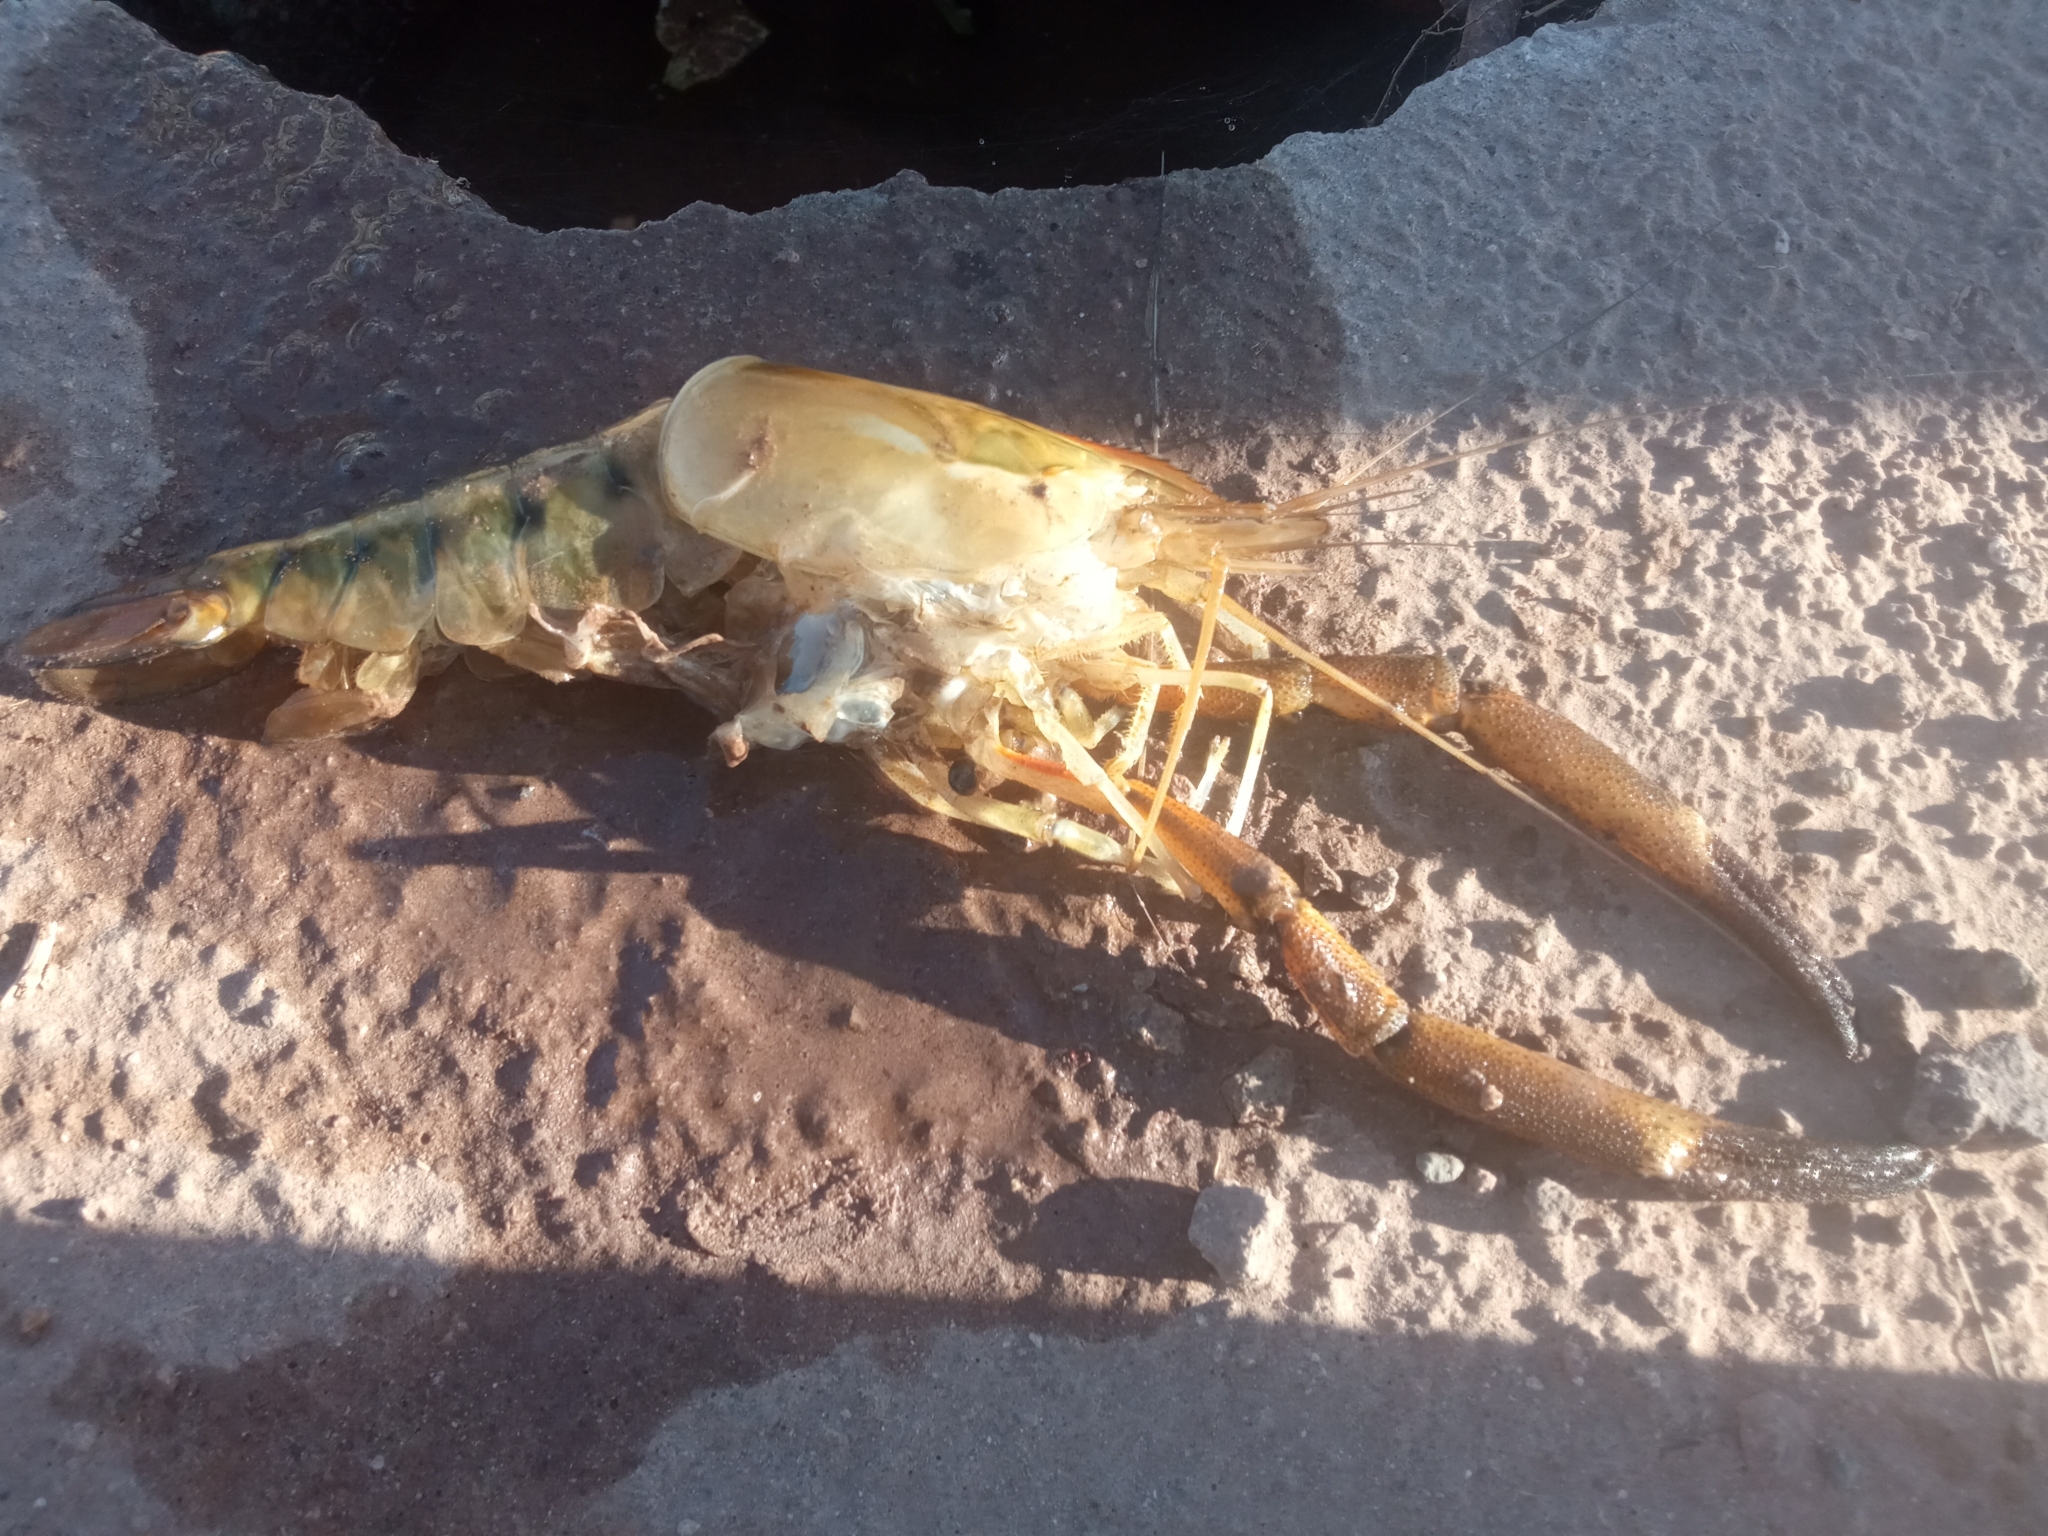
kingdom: Animalia
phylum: Arthropoda
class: Malacostraca
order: Decapoda
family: Palaemonidae
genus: Macrobrachium
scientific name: Macrobrachium americanum
